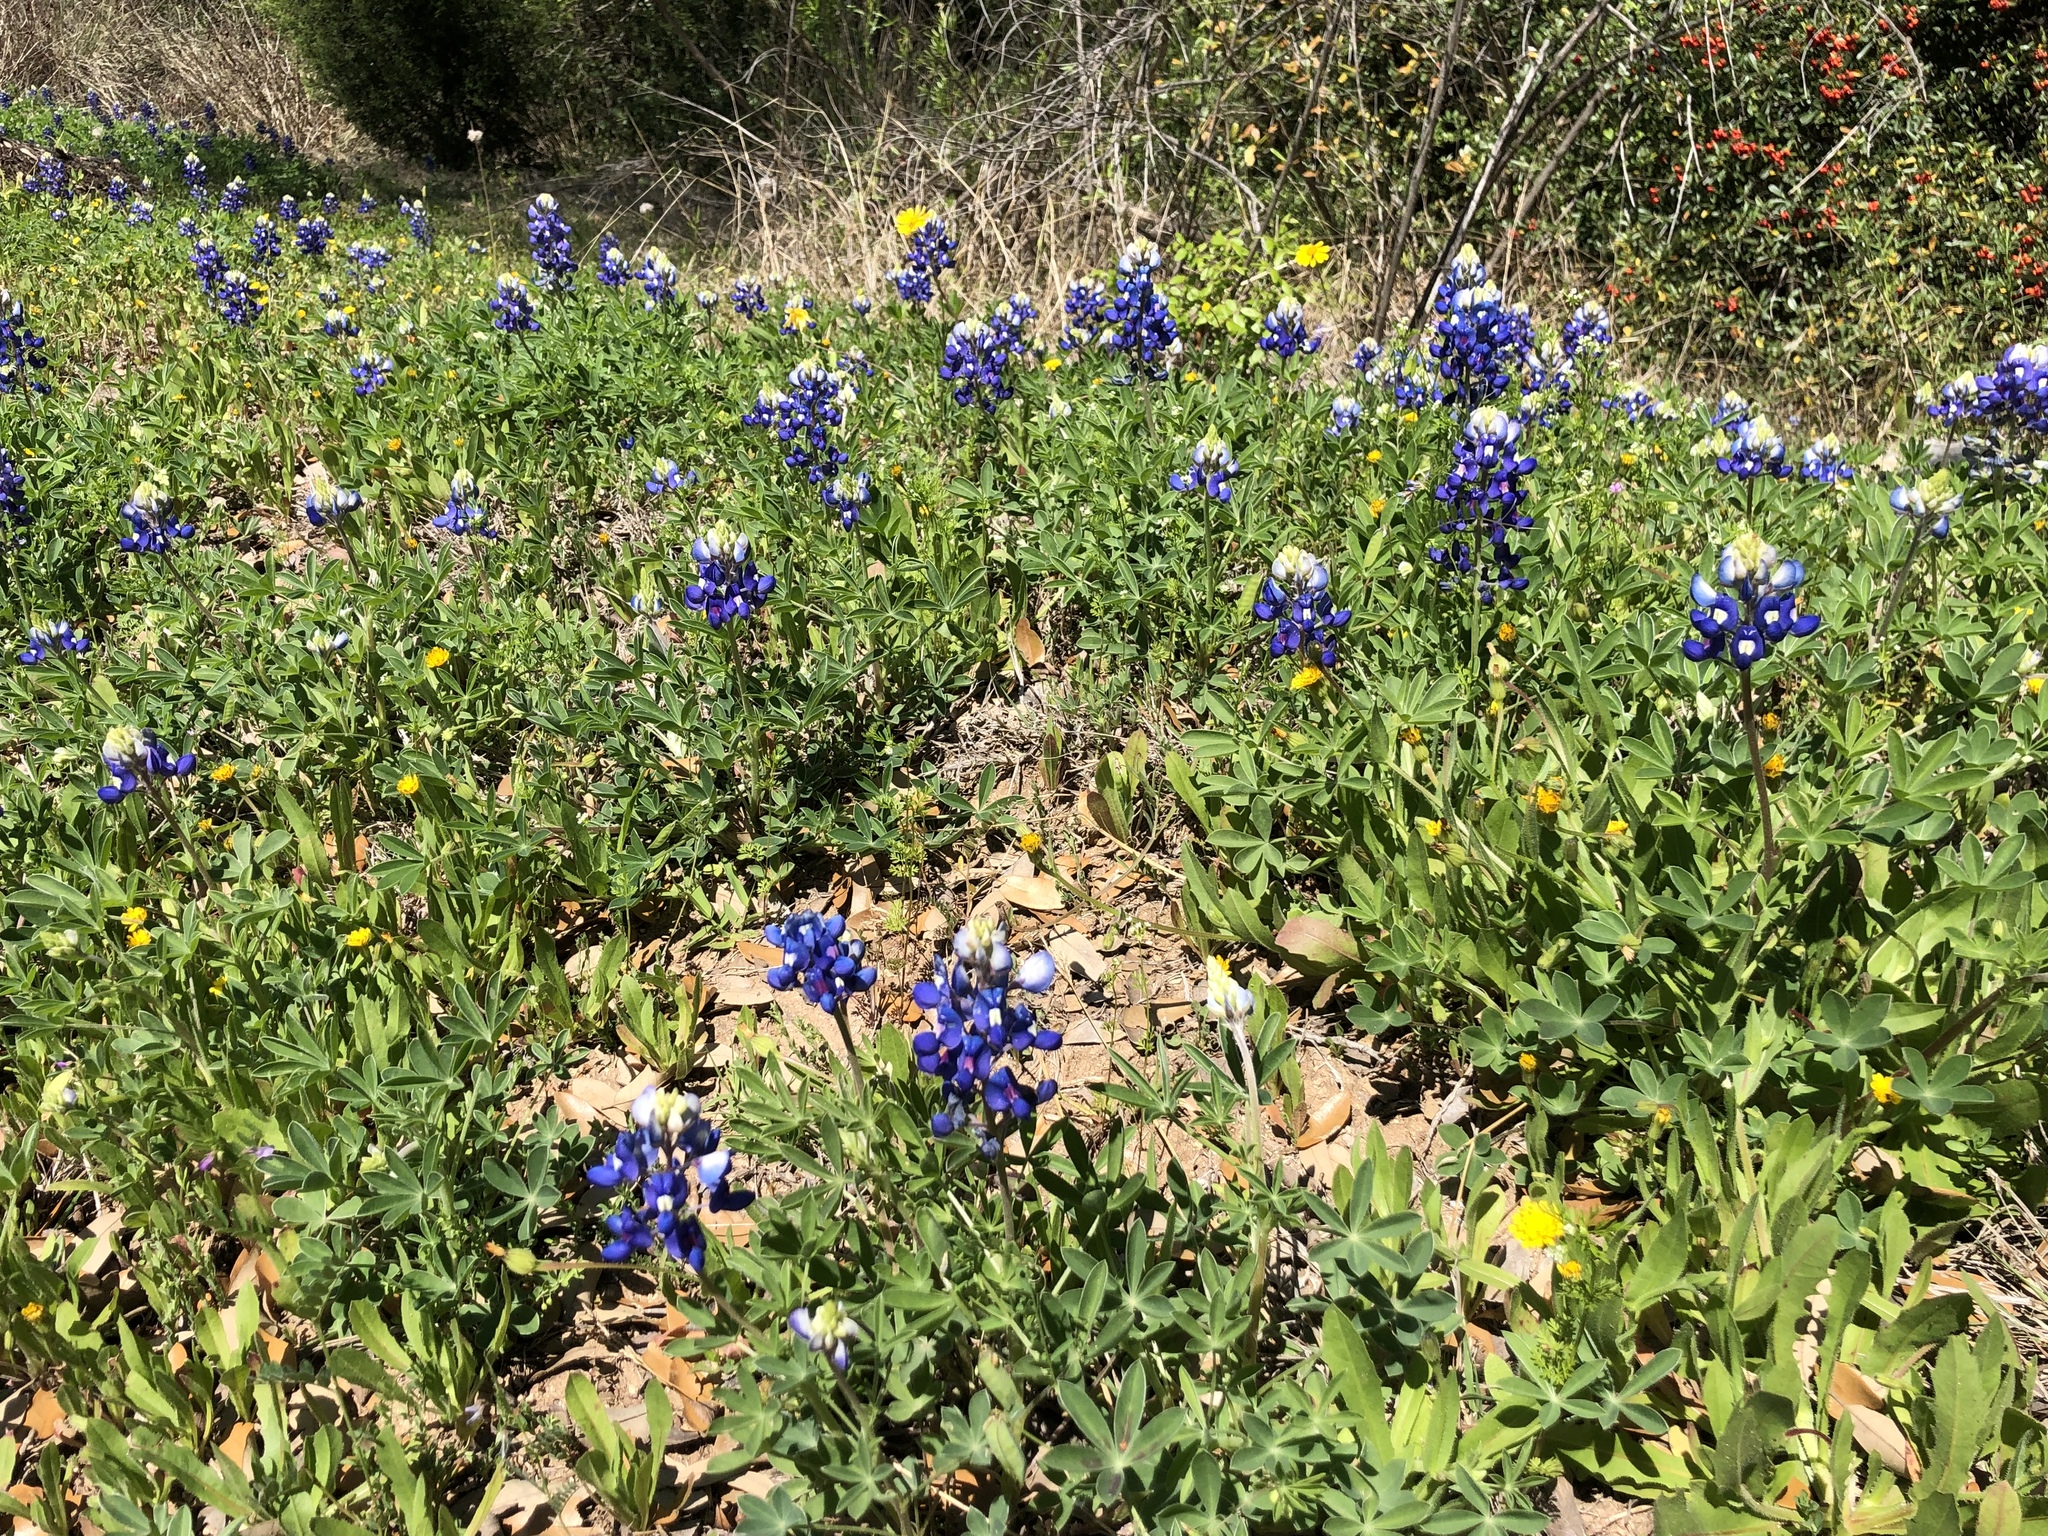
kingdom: Plantae
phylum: Tracheophyta
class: Magnoliopsida
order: Fabales
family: Fabaceae
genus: Lupinus
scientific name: Lupinus texensis
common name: Texas bluebonnet
